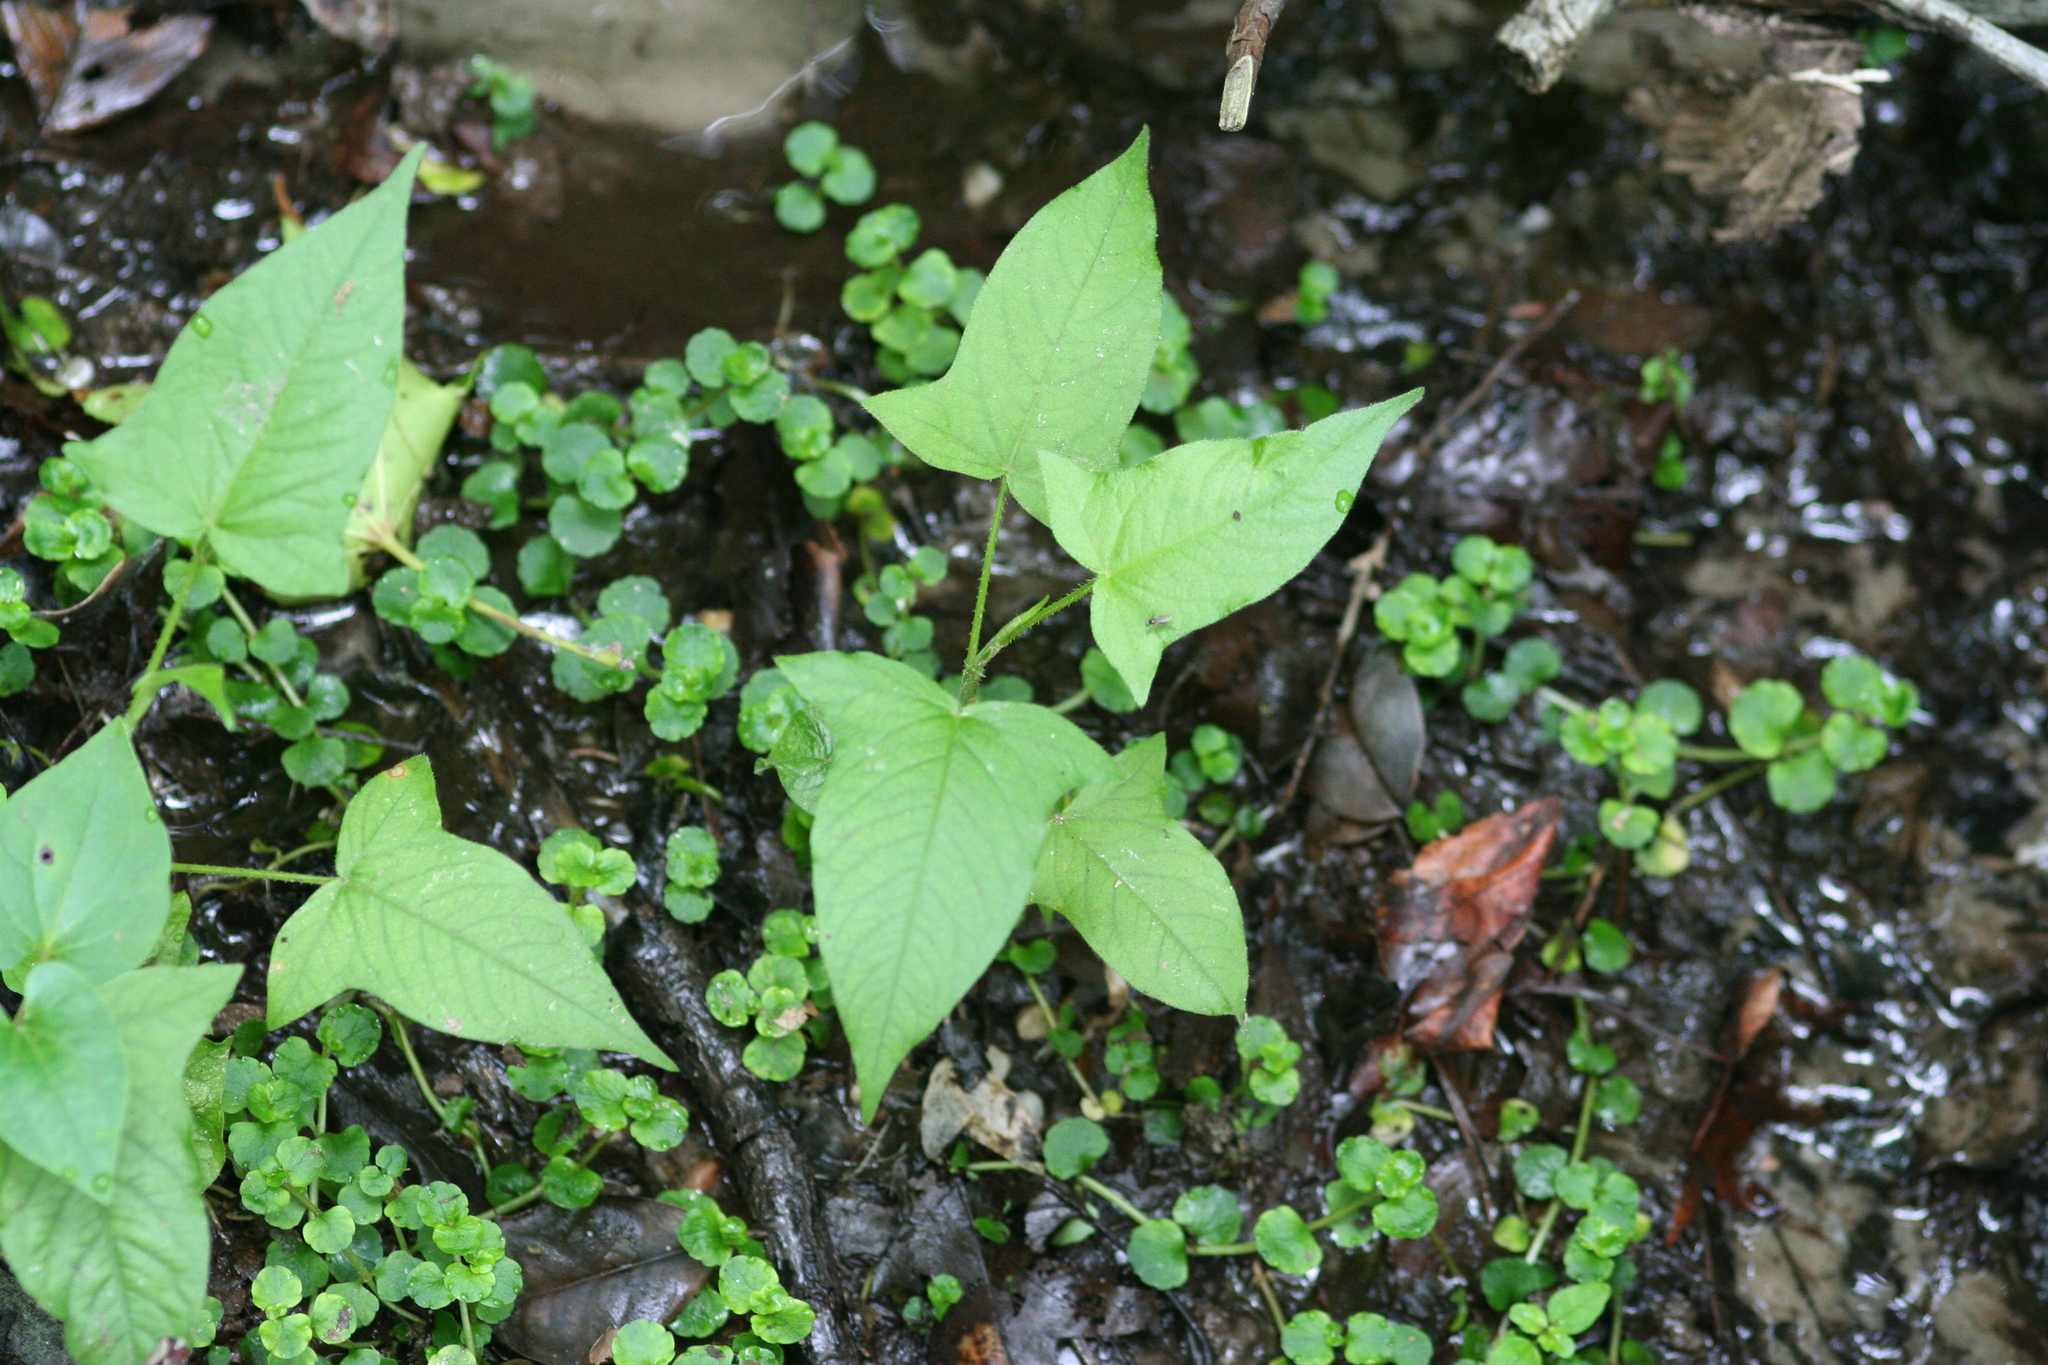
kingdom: Plantae
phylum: Tracheophyta
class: Magnoliopsida
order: Caryophyllales
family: Polygonaceae
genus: Persicaria
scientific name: Persicaria arifolia
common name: Halberd-leaved tear-thumb
